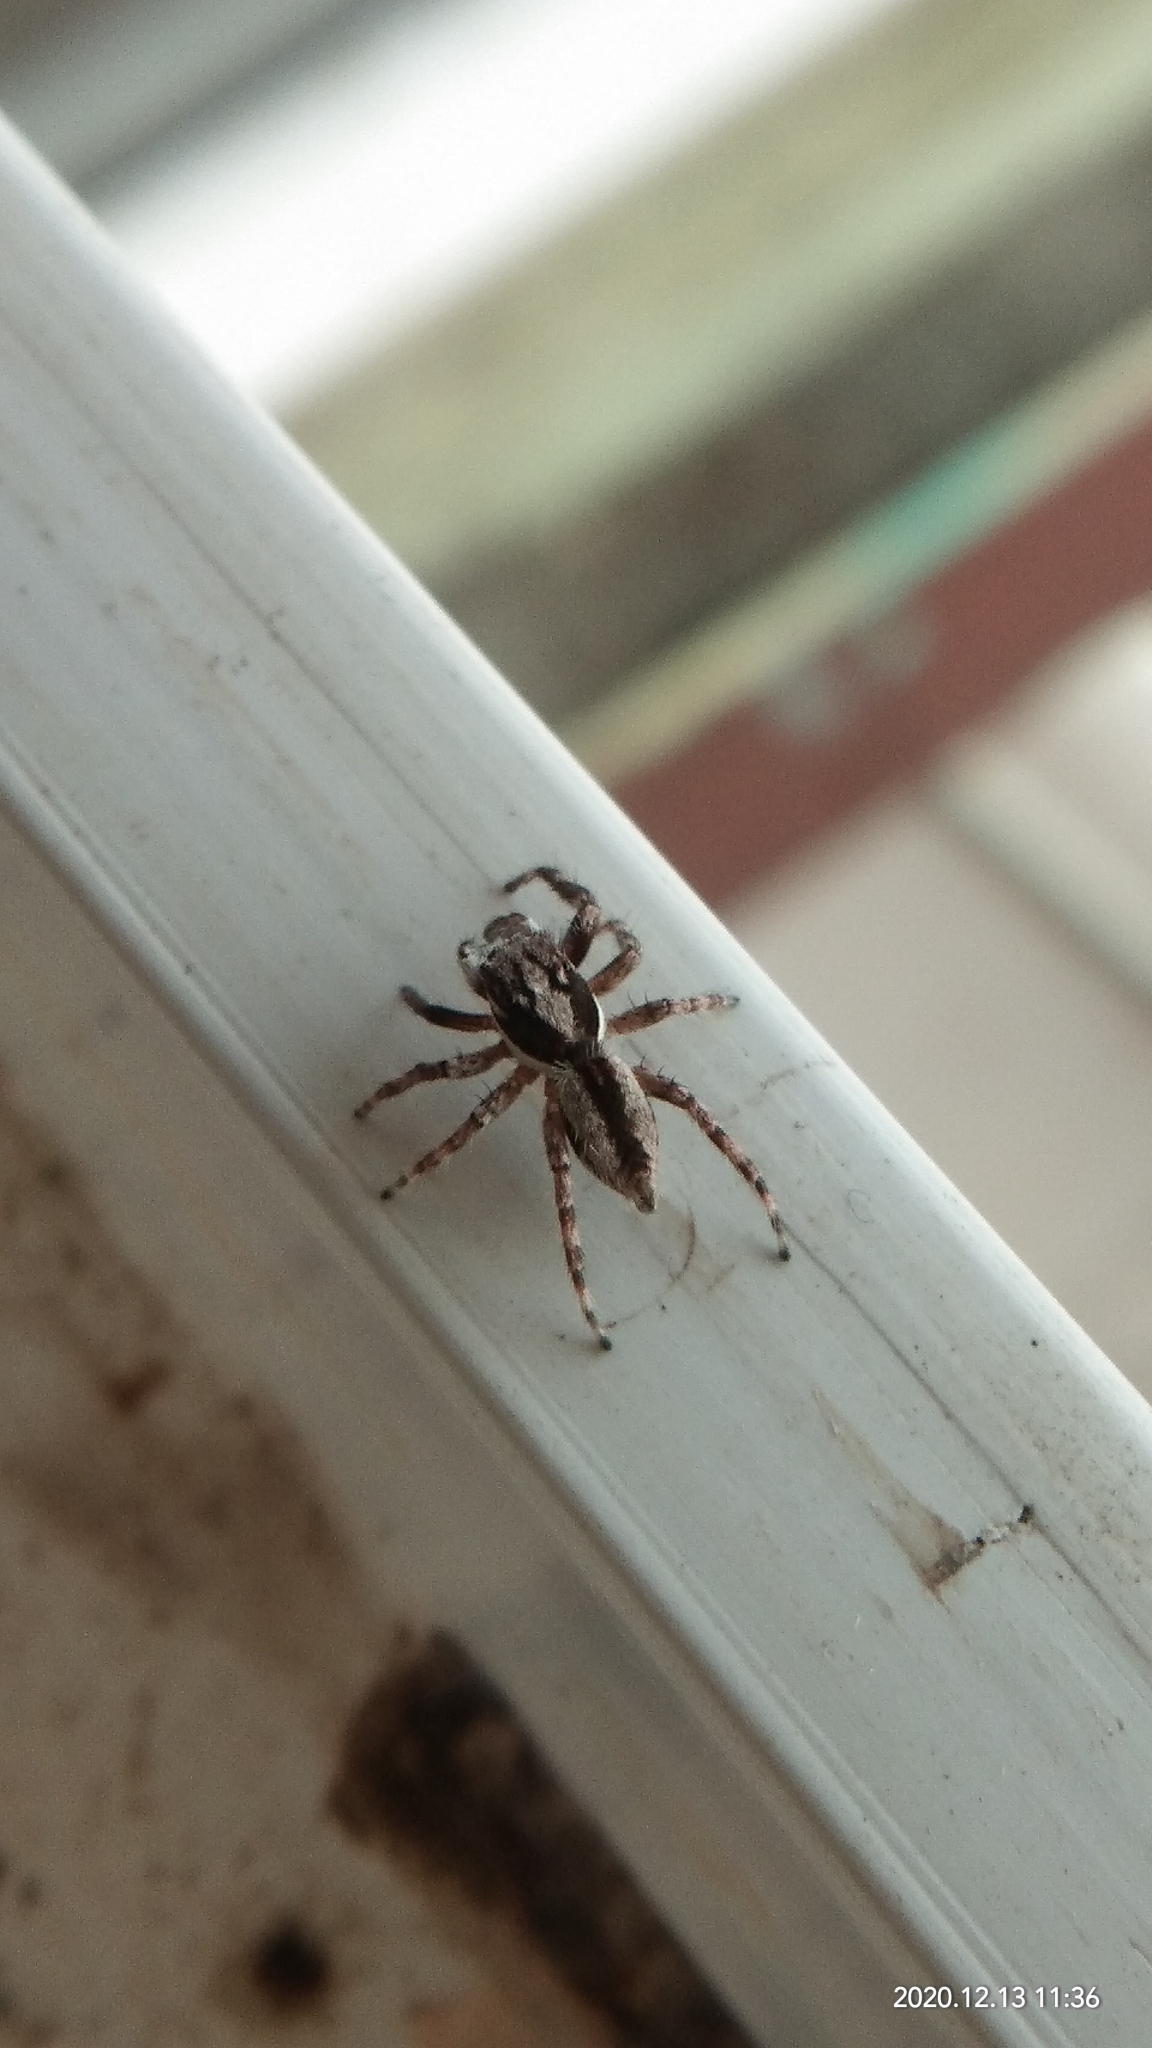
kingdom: Animalia
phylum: Arthropoda
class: Arachnida
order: Araneae
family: Salticidae
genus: Menemerus
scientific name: Menemerus bivittatus
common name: Gray wall jumper
